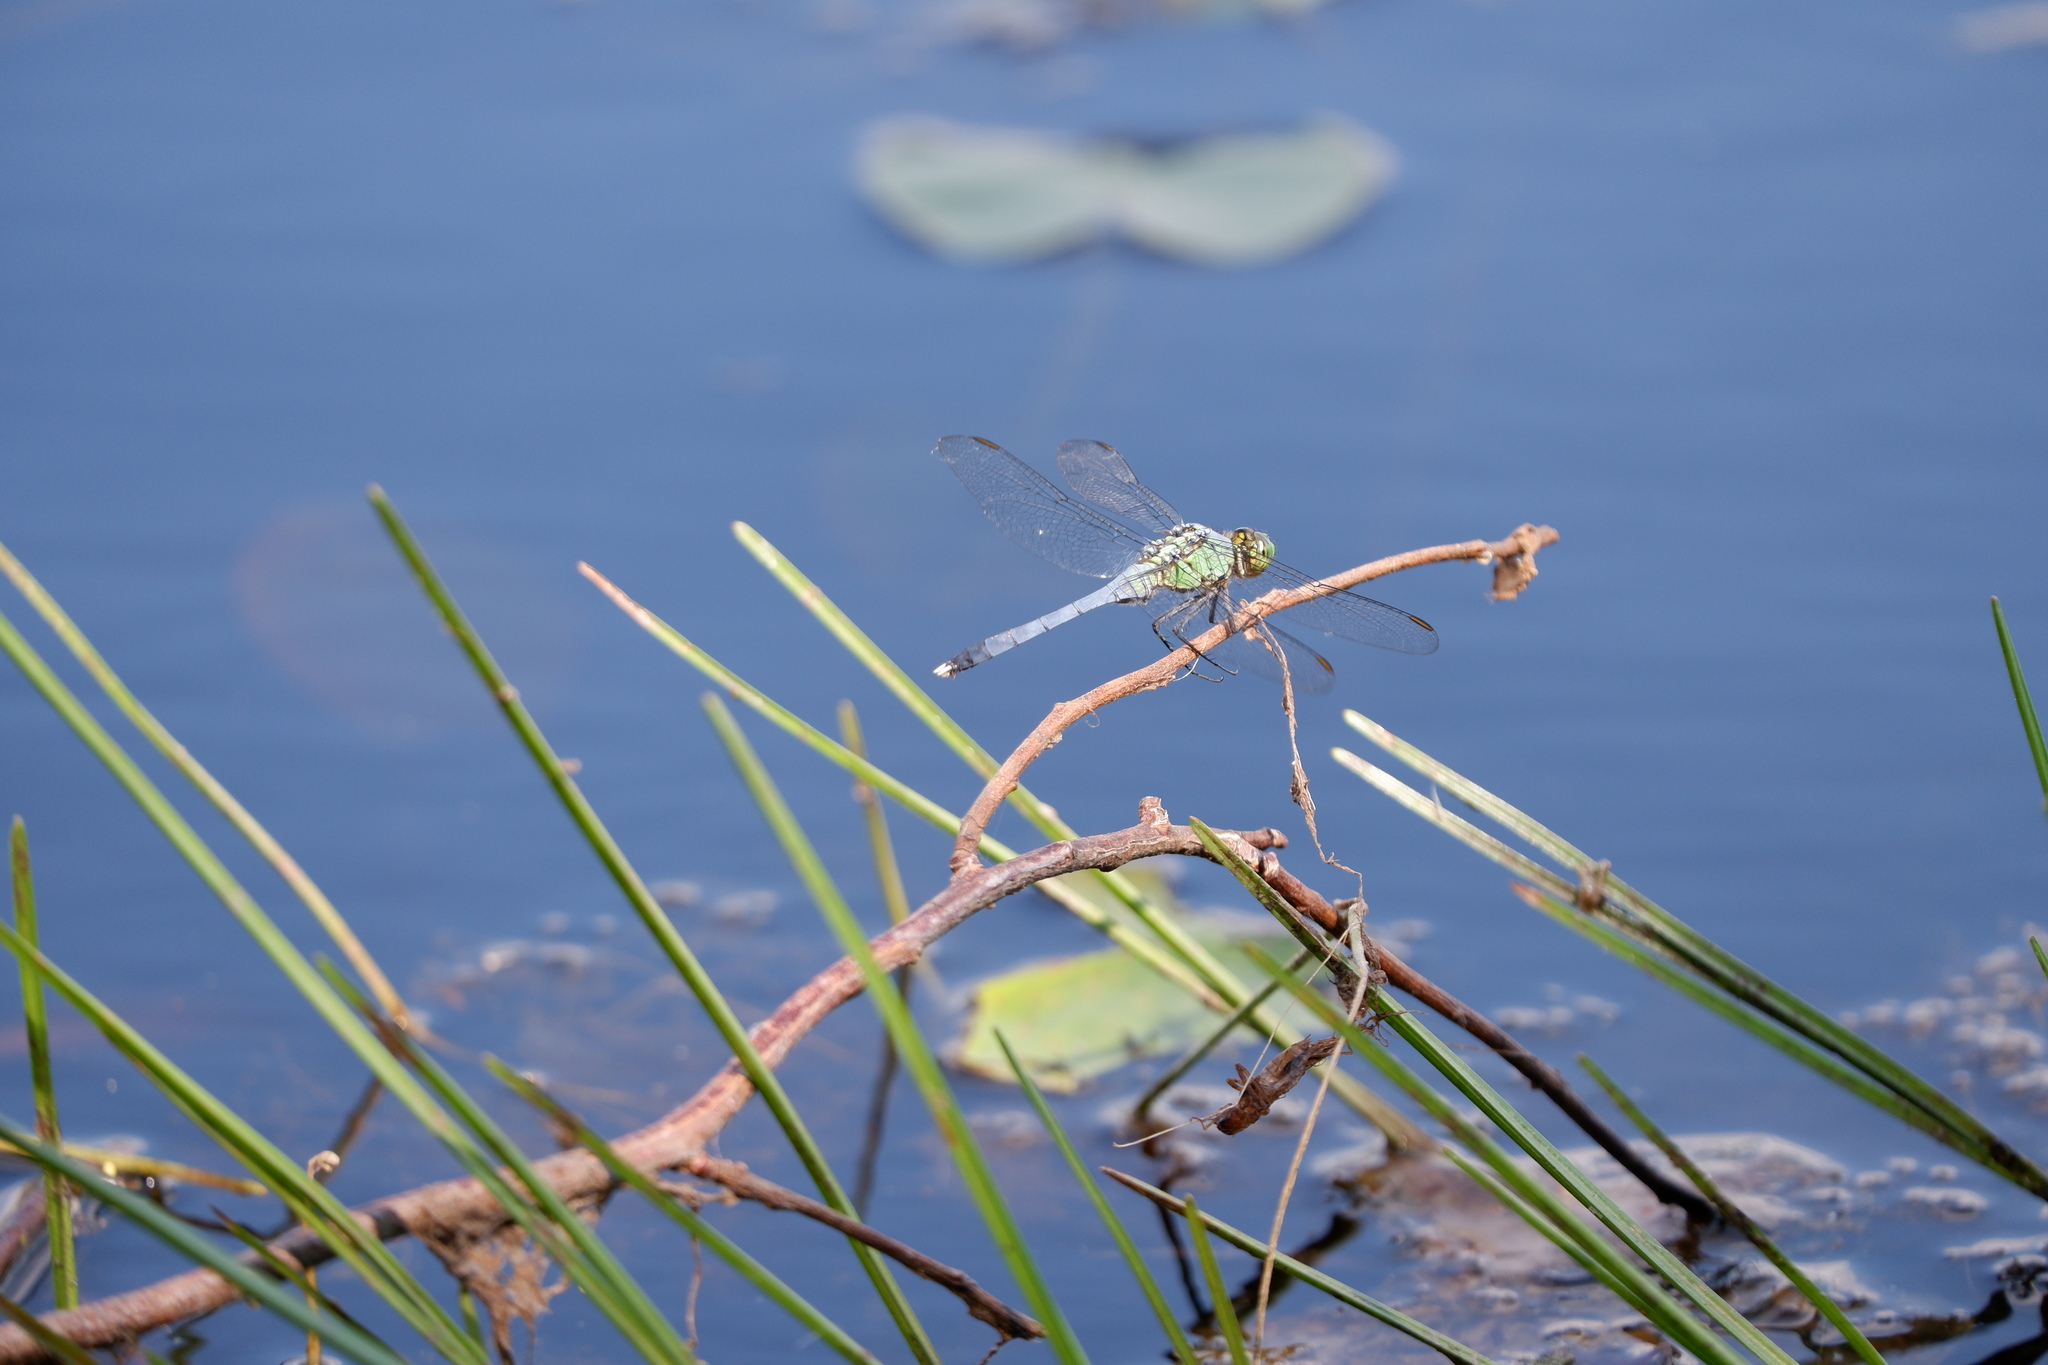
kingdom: Animalia
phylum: Arthropoda
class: Insecta
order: Odonata
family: Libellulidae
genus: Erythemis
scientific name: Erythemis simplicicollis
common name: Eastern pondhawk
